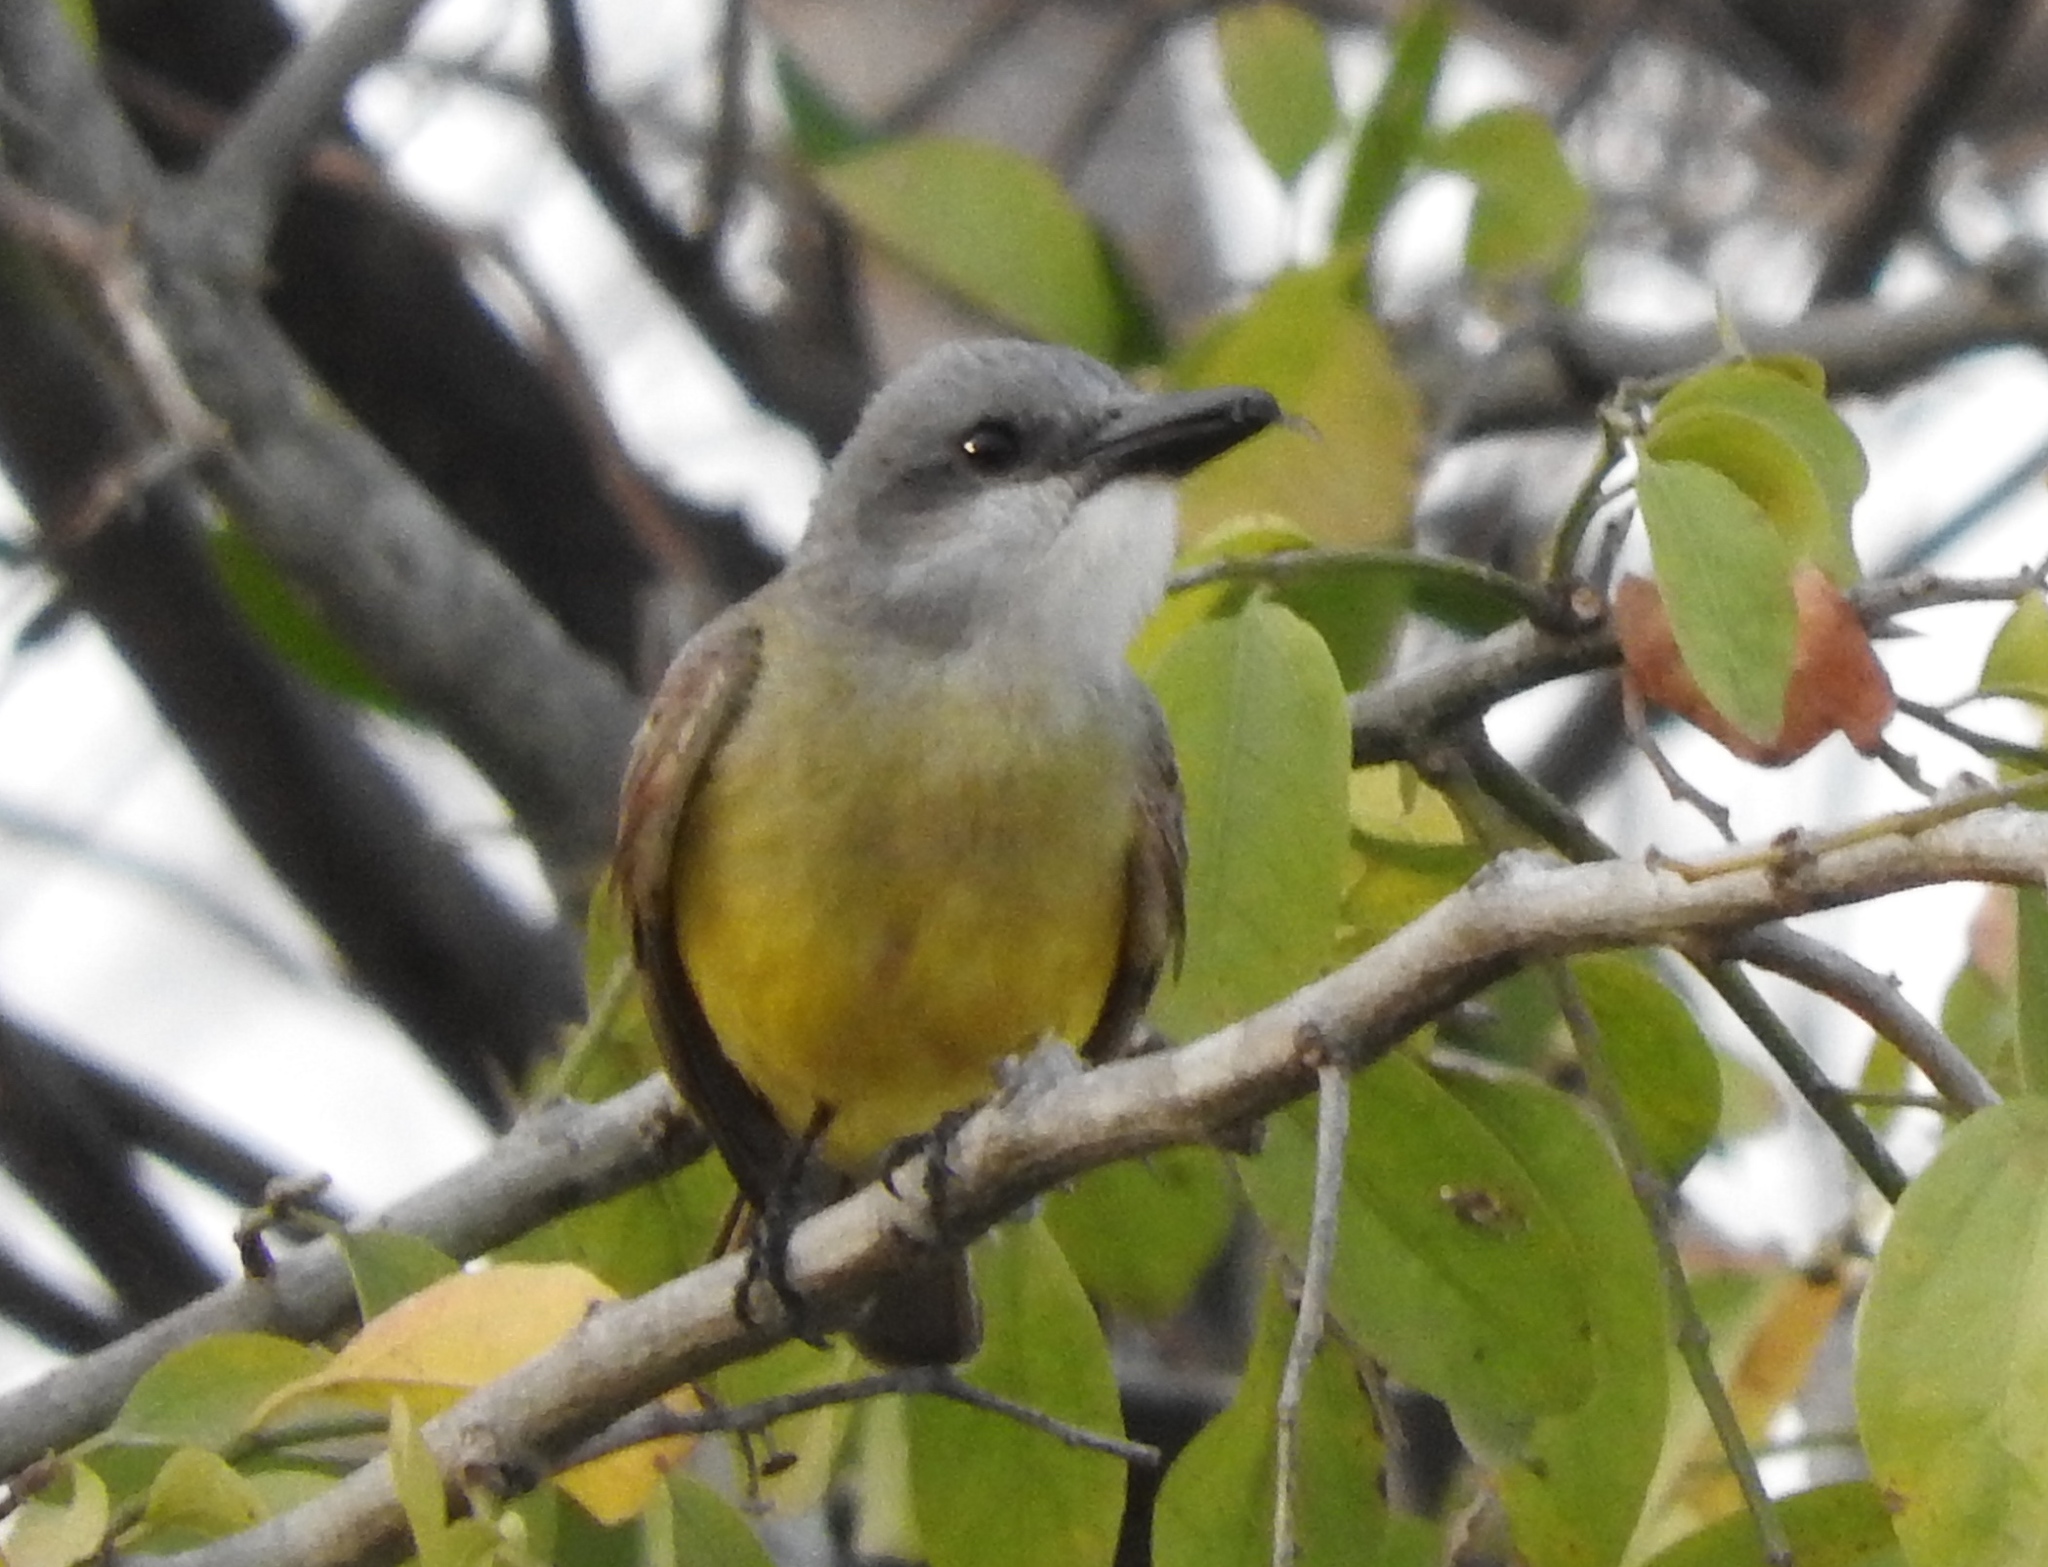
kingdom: Animalia
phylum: Chordata
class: Aves
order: Passeriformes
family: Tyrannidae
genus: Tyrannus
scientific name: Tyrannus melancholicus
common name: Tropical kingbird
